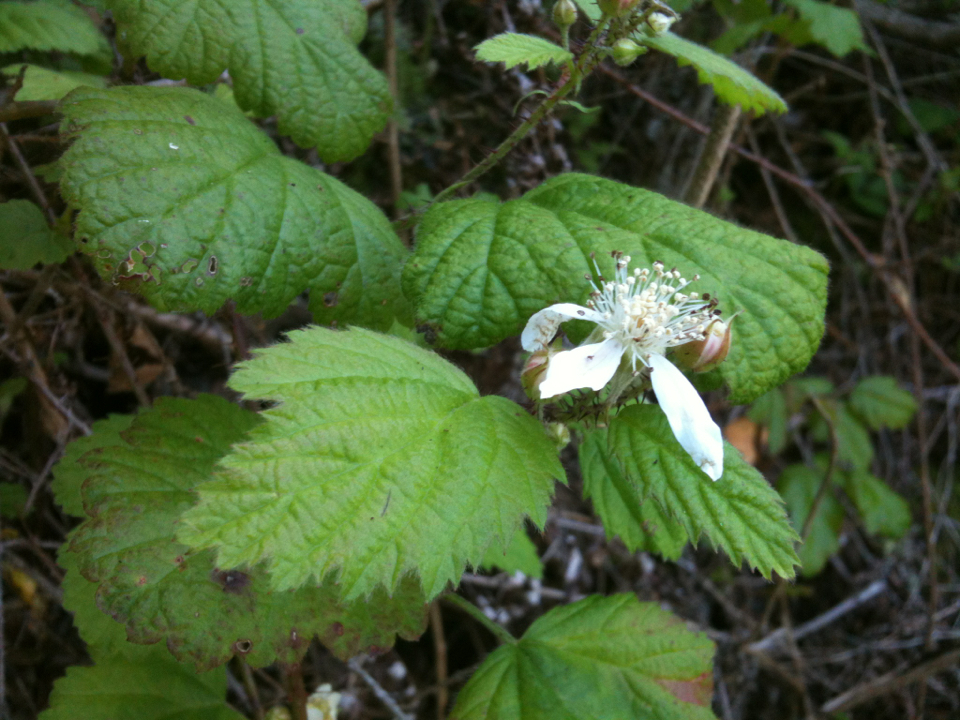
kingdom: Plantae
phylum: Tracheophyta
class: Magnoliopsida
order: Rosales
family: Rosaceae
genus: Rubus
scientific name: Rubus ursinus
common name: Pacific blackberry
